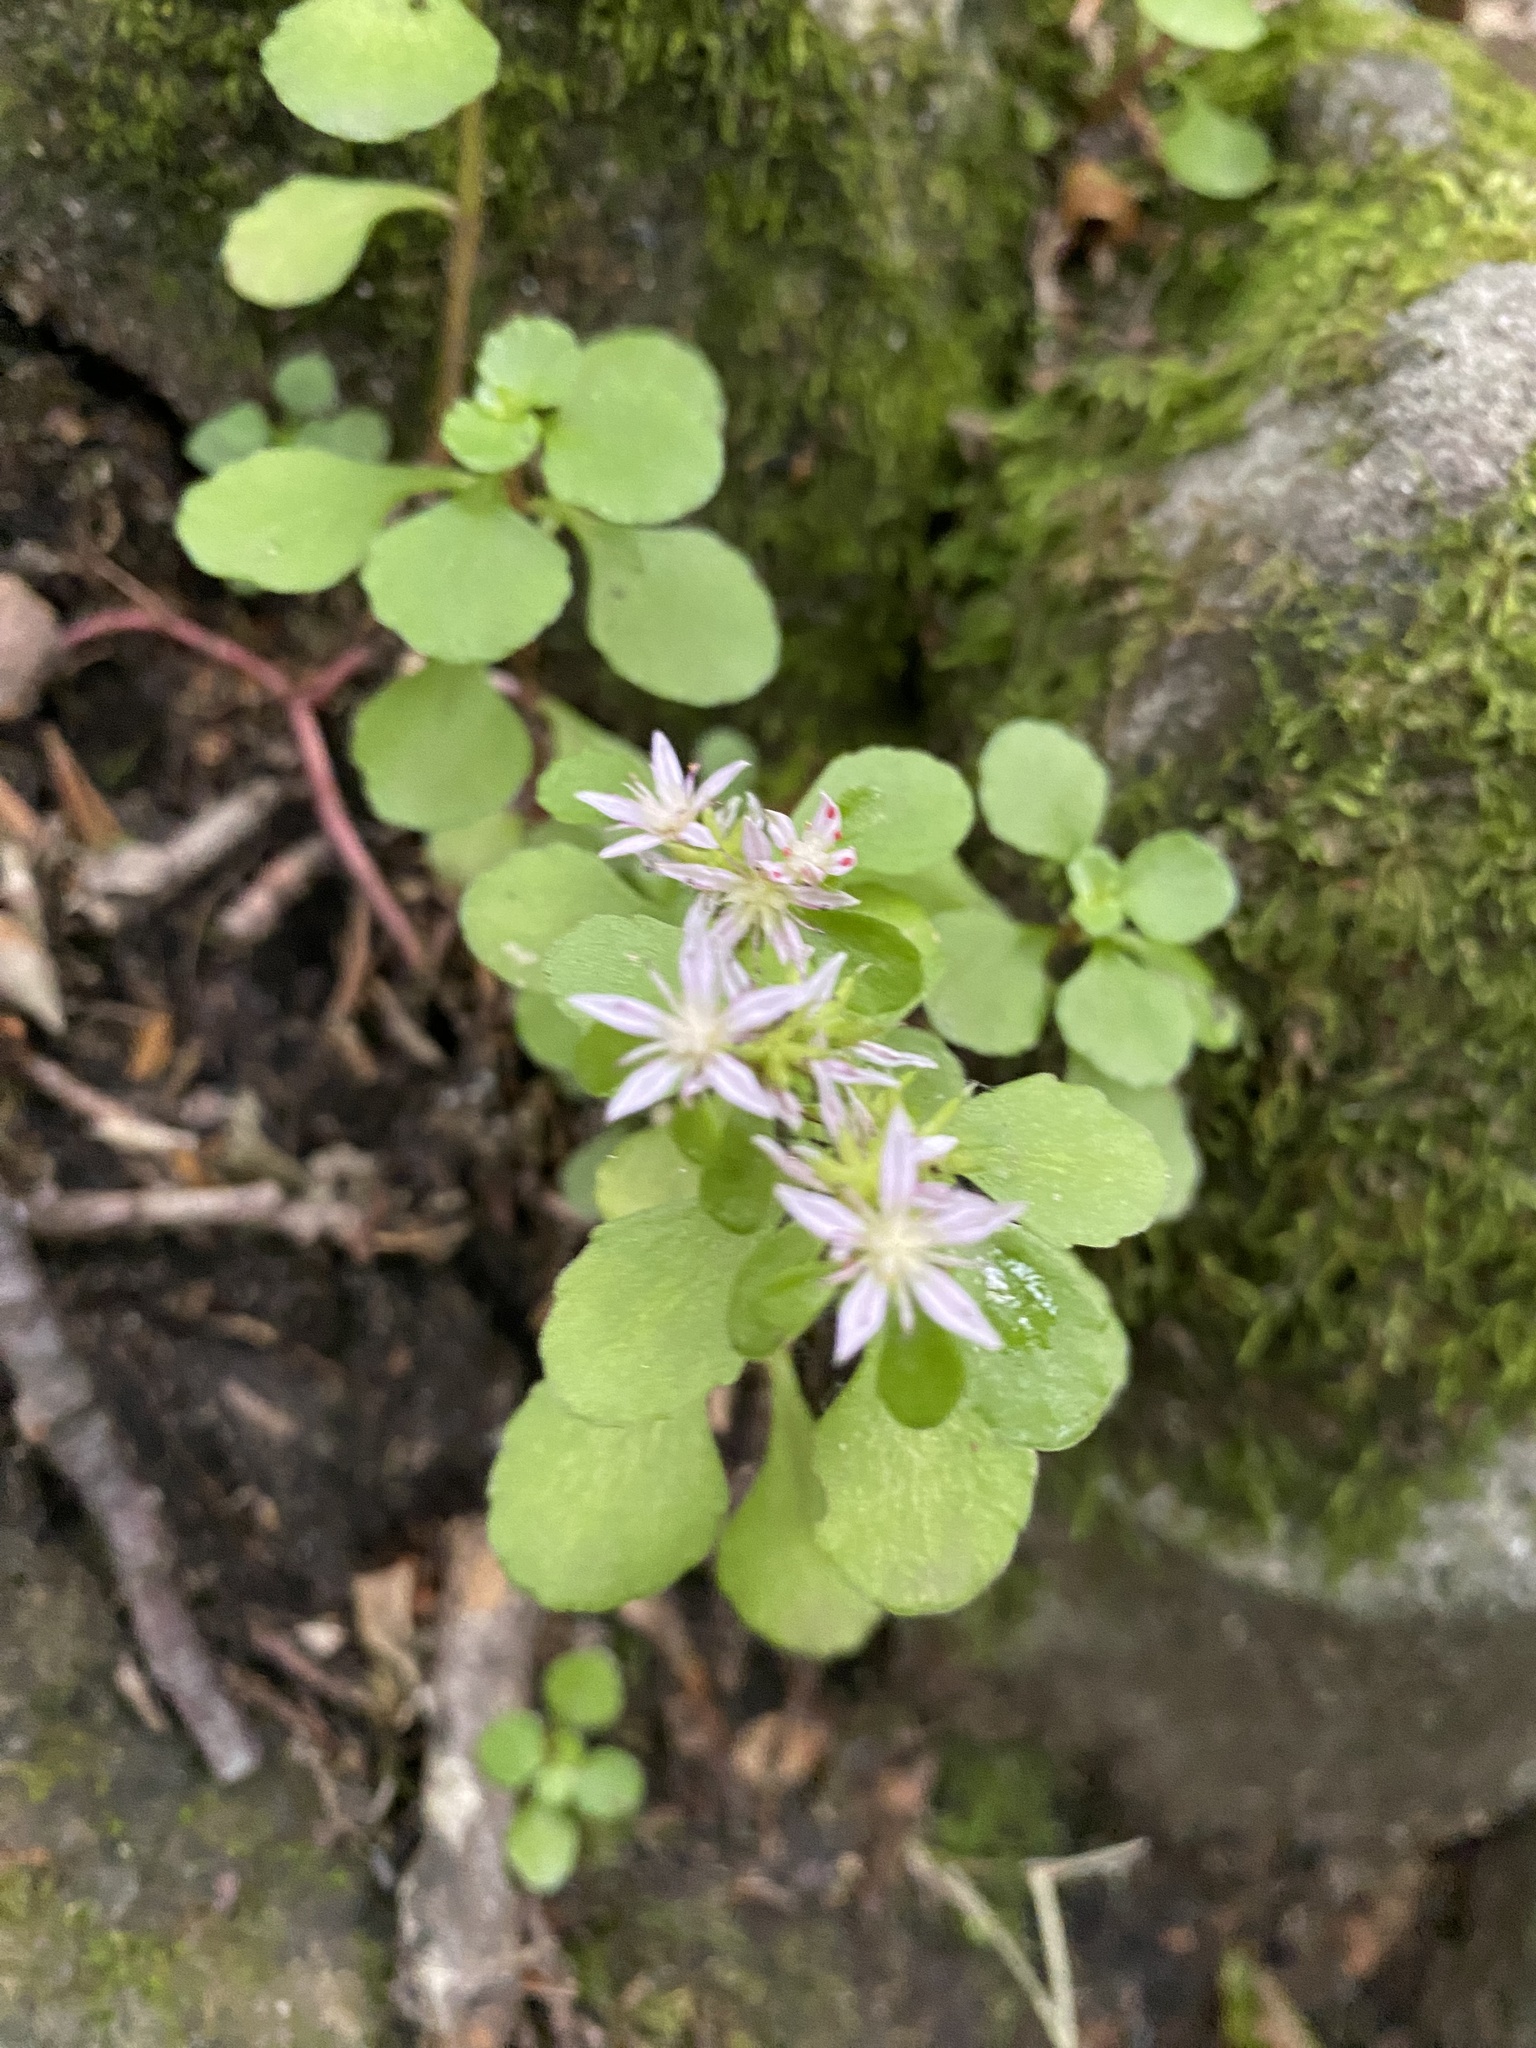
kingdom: Plantae
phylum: Tracheophyta
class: Magnoliopsida
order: Saxifragales
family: Crassulaceae
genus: Phedimus
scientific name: Phedimus stolonifer
